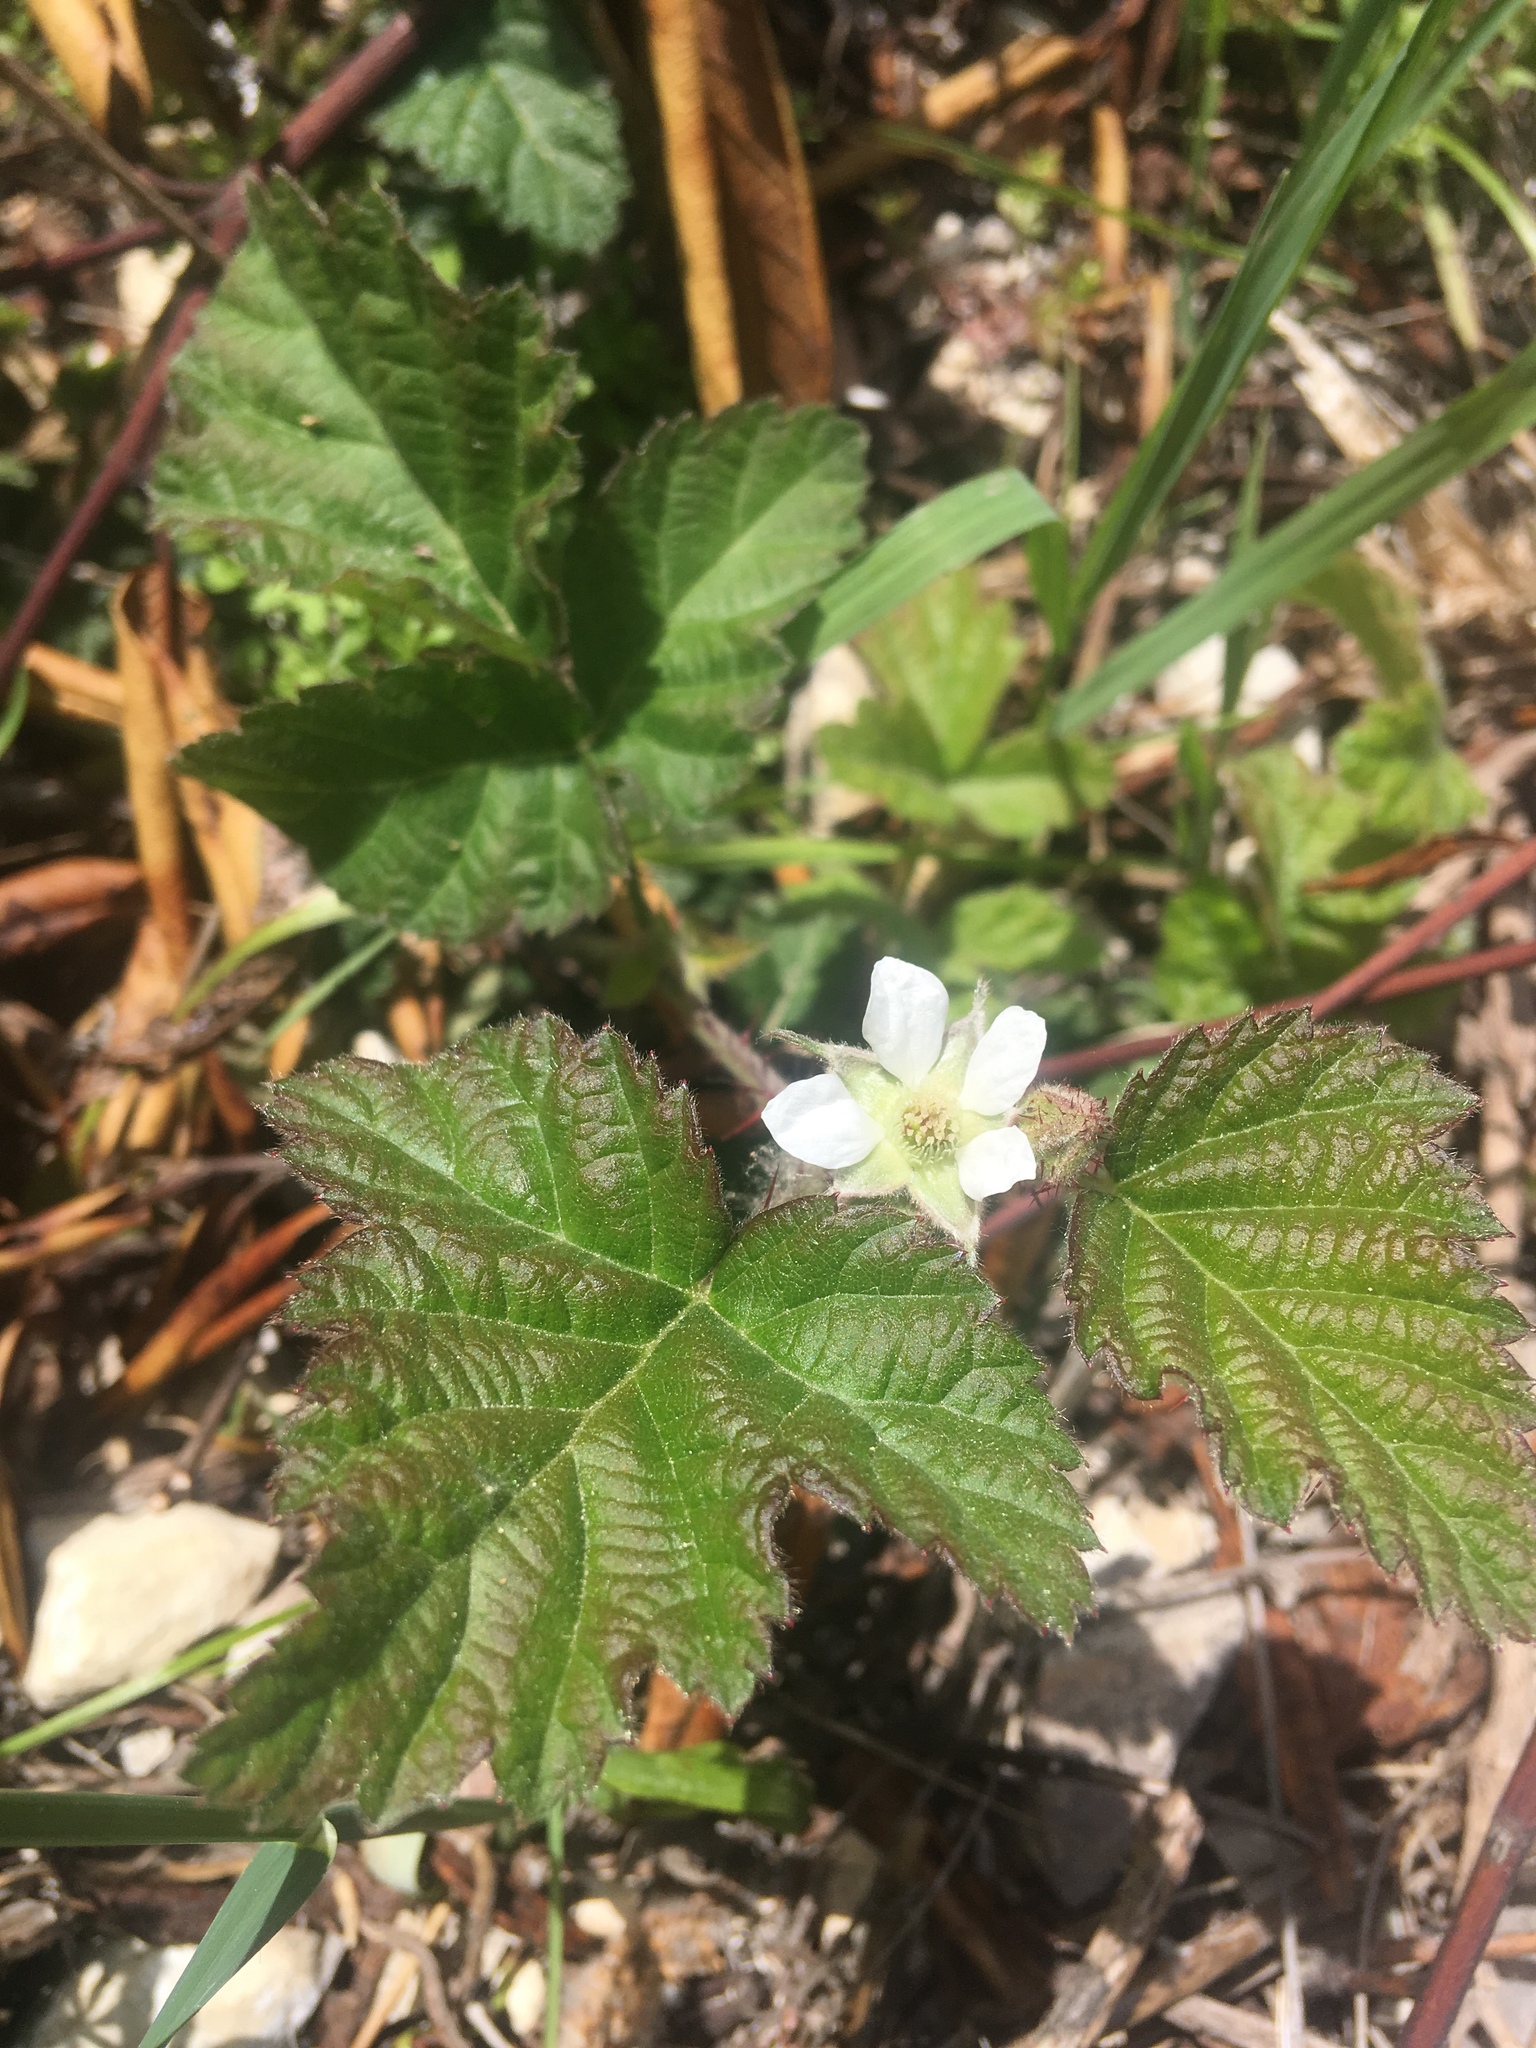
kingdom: Plantae
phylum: Tracheophyta
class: Magnoliopsida
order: Rosales
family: Rosaceae
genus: Rubus
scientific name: Rubus ursinus
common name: Pacific blackberry
